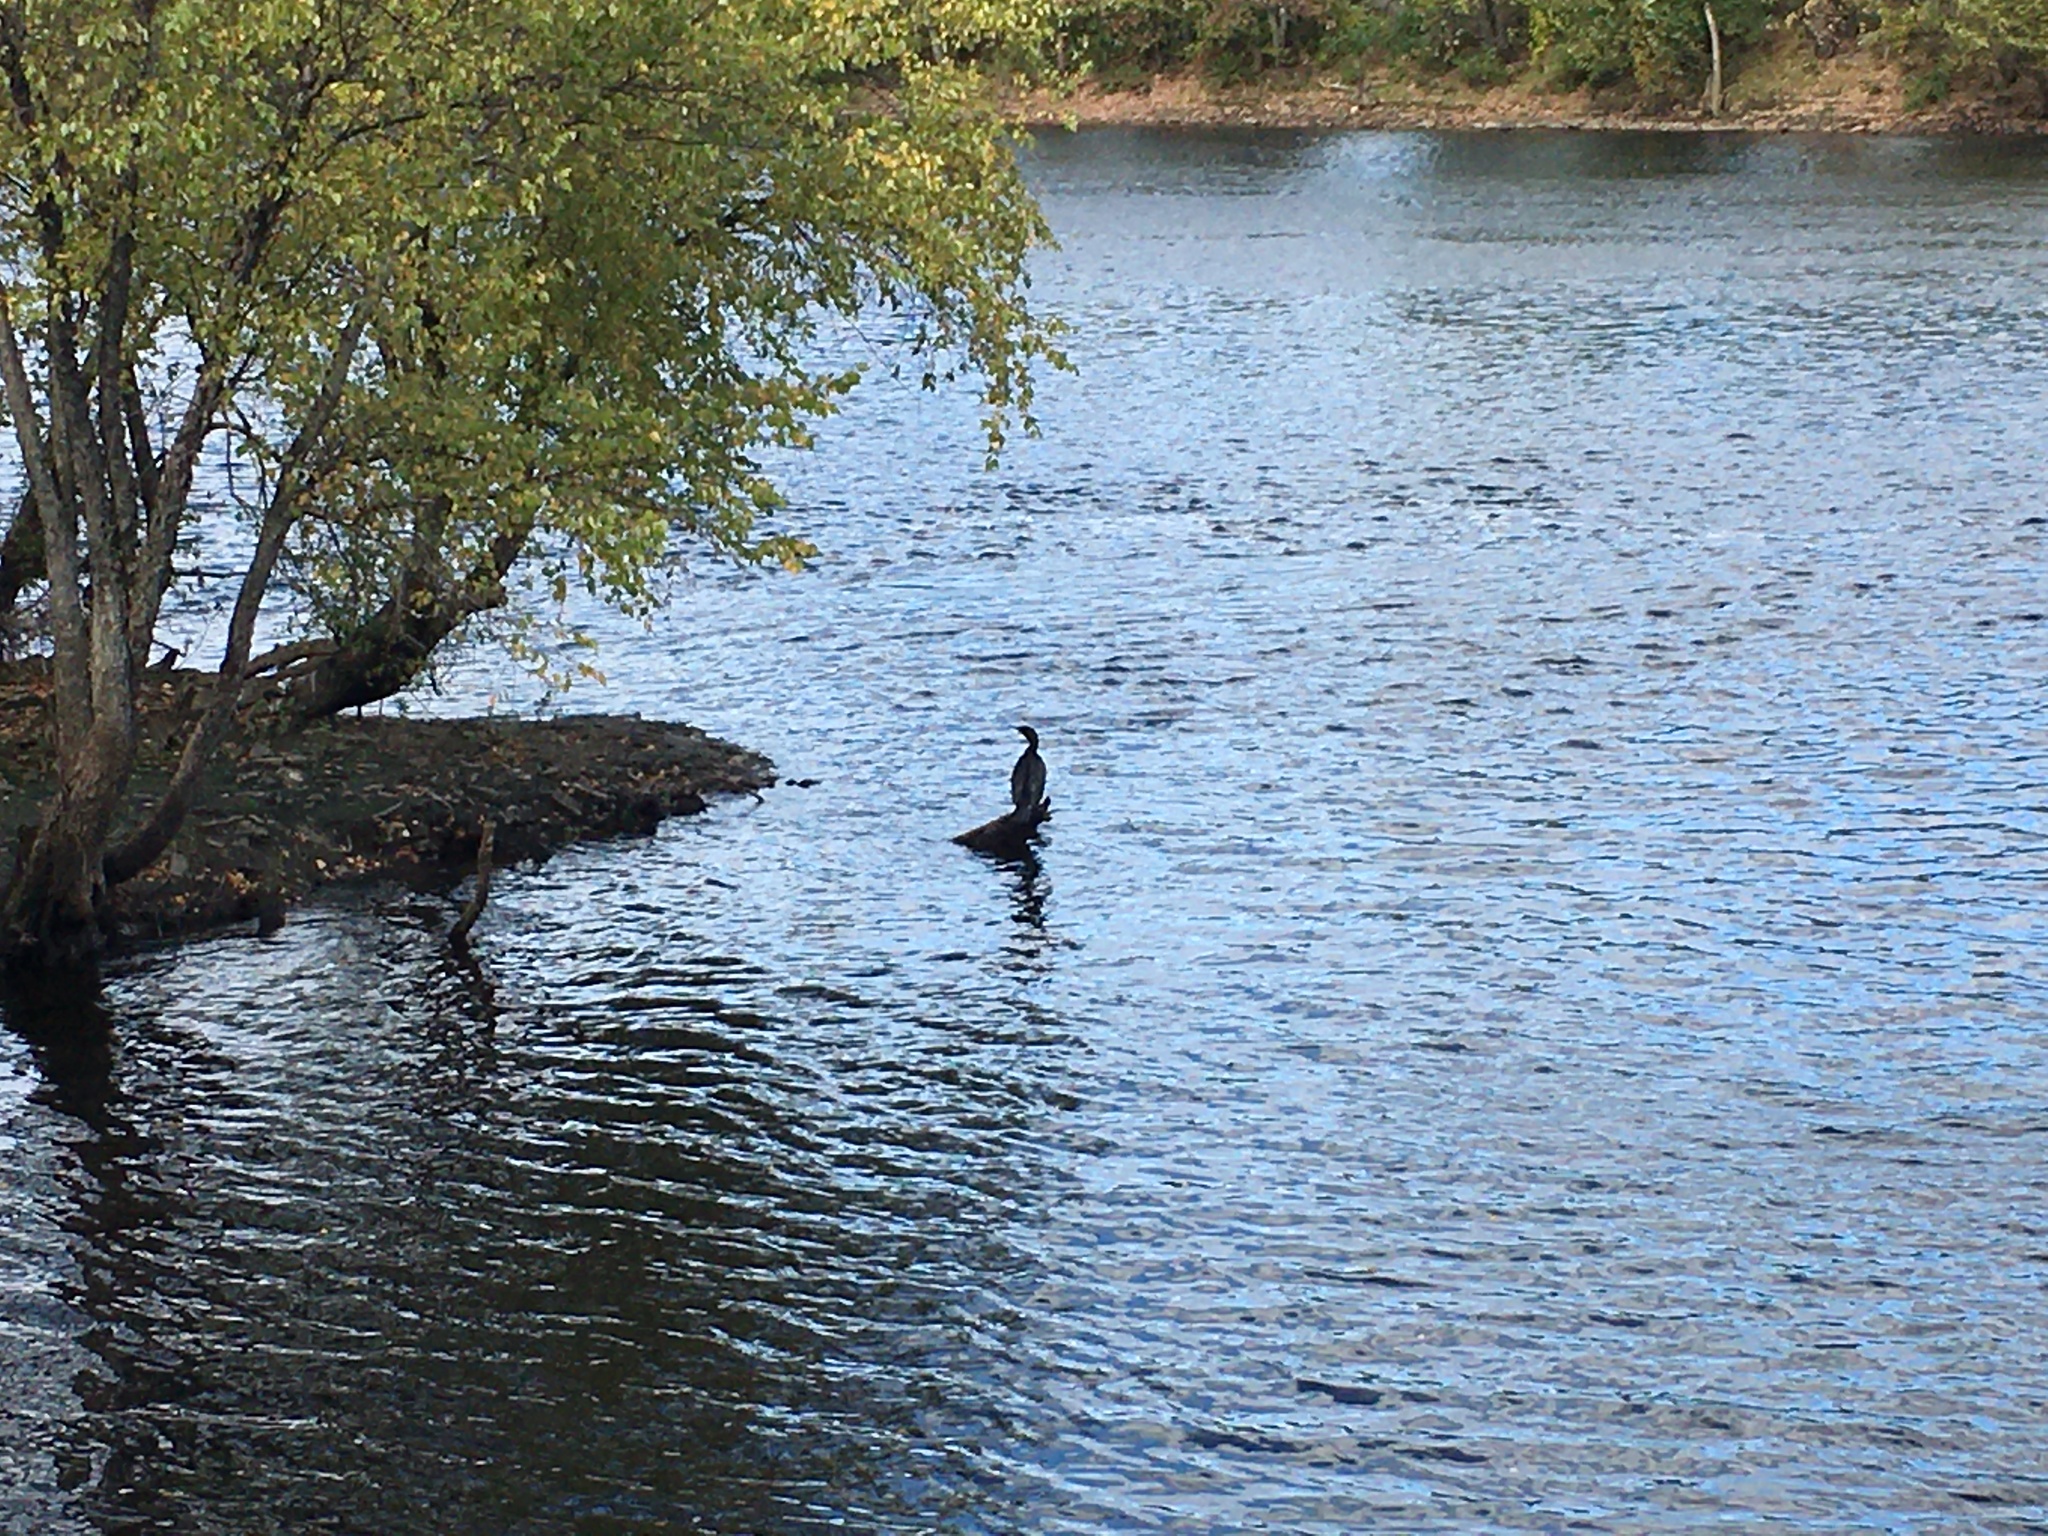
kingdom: Animalia
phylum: Chordata
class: Aves
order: Suliformes
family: Phalacrocoracidae
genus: Phalacrocorax
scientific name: Phalacrocorax auritus
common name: Double-crested cormorant
